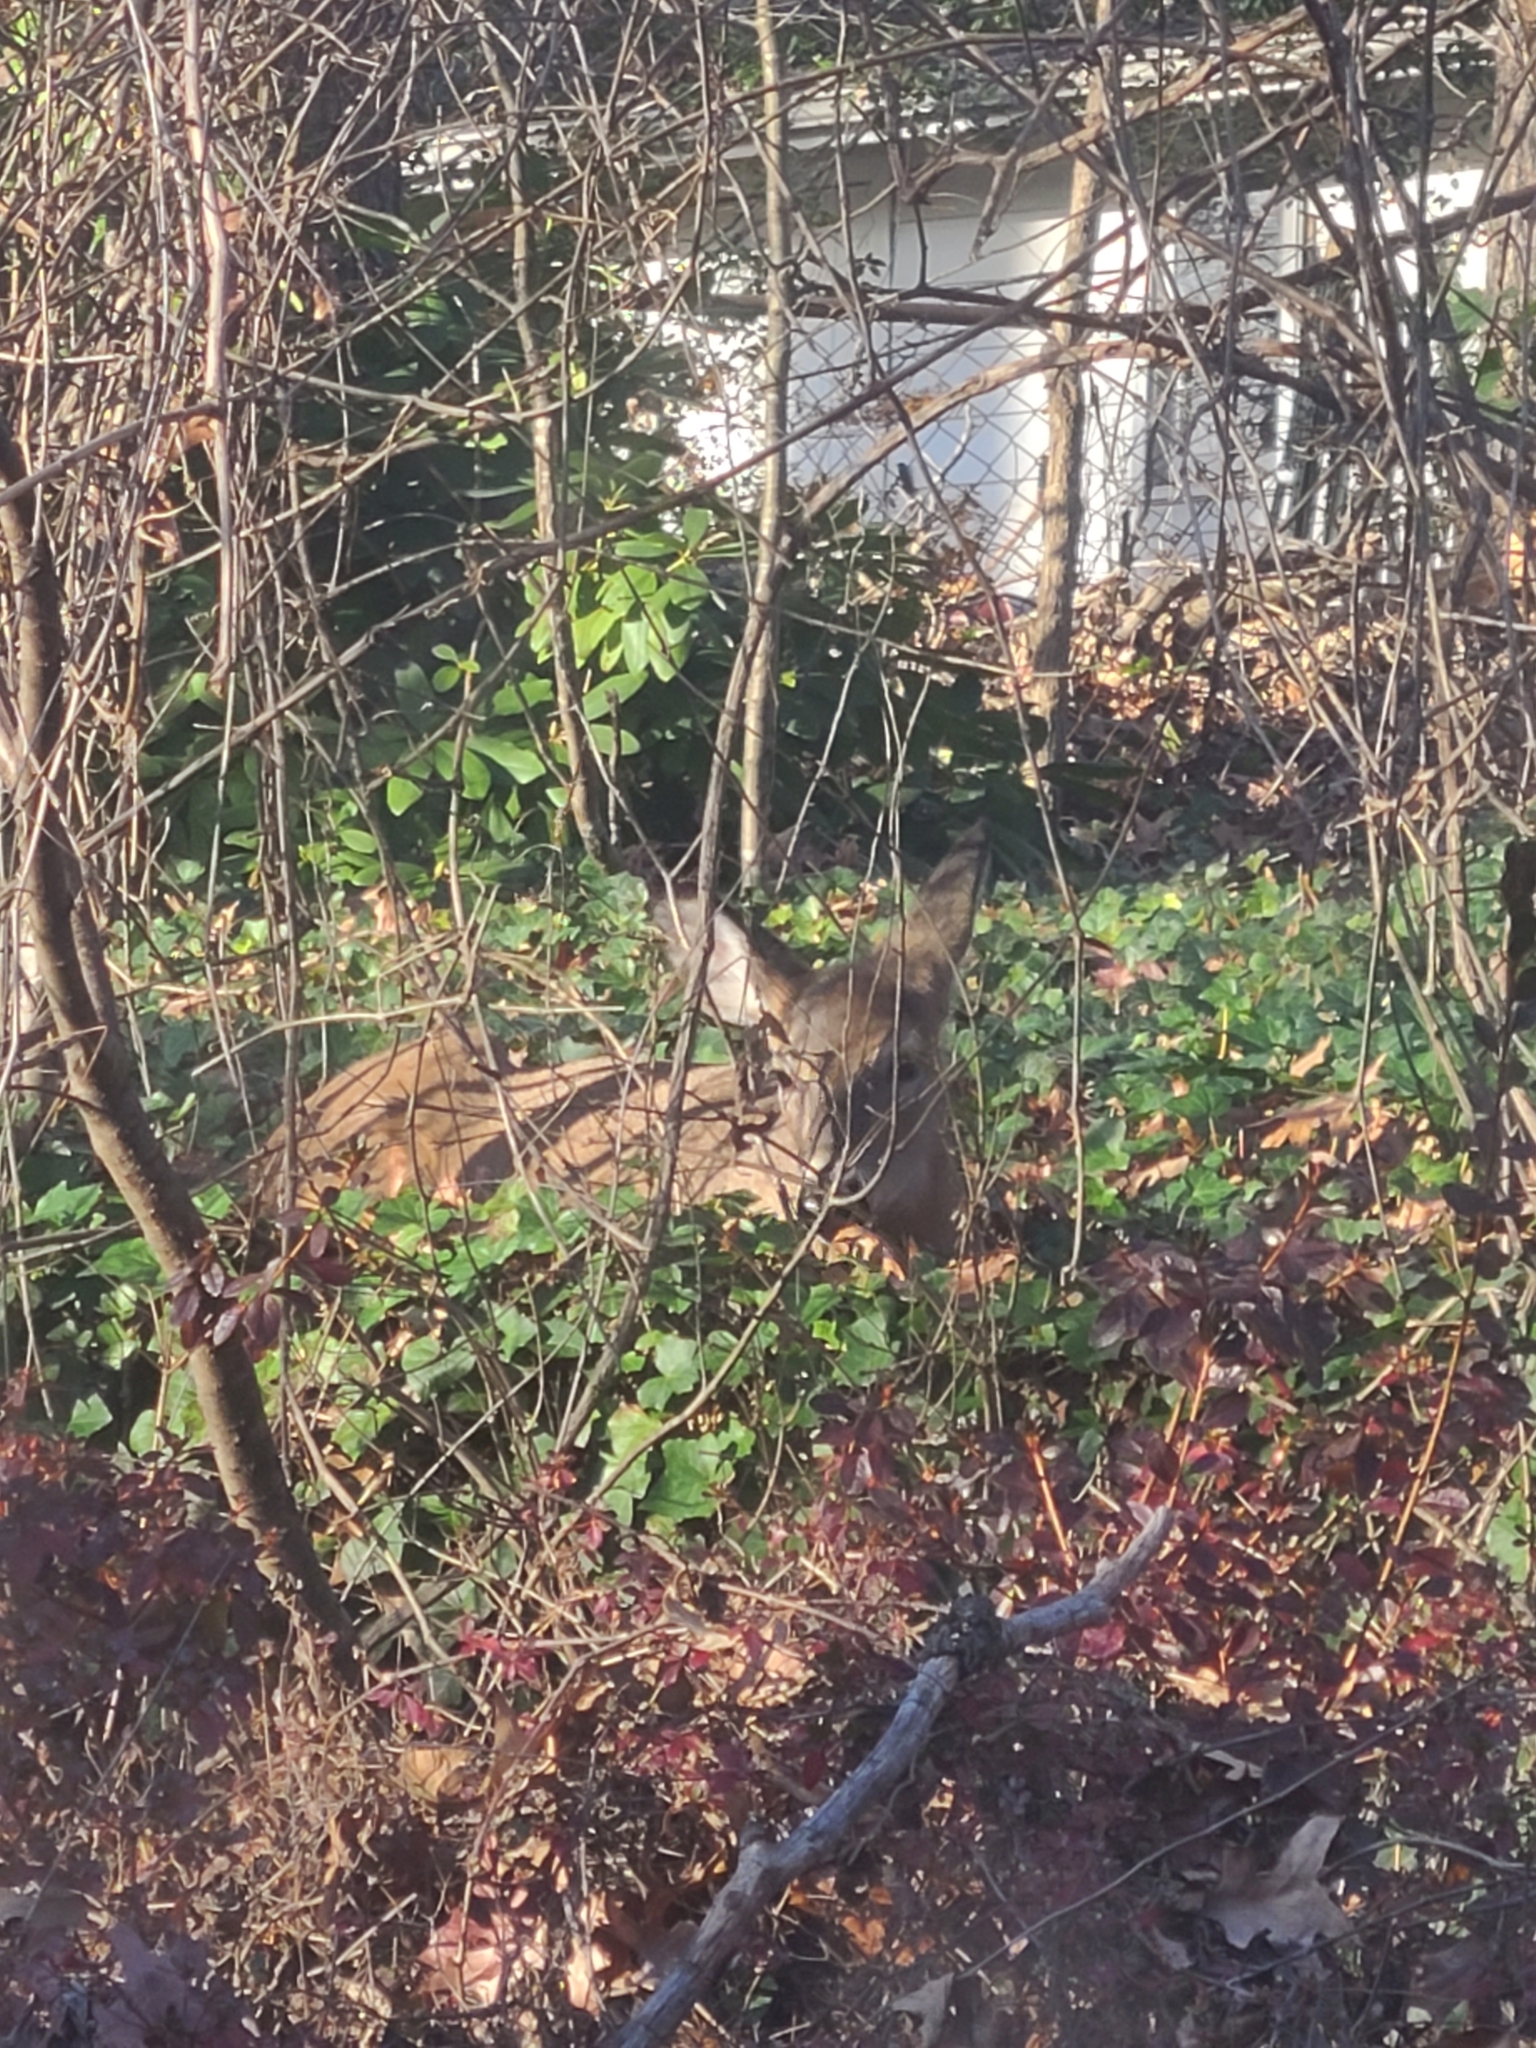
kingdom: Animalia
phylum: Chordata
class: Mammalia
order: Artiodactyla
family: Cervidae
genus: Odocoileus
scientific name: Odocoileus virginianus
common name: White-tailed deer
